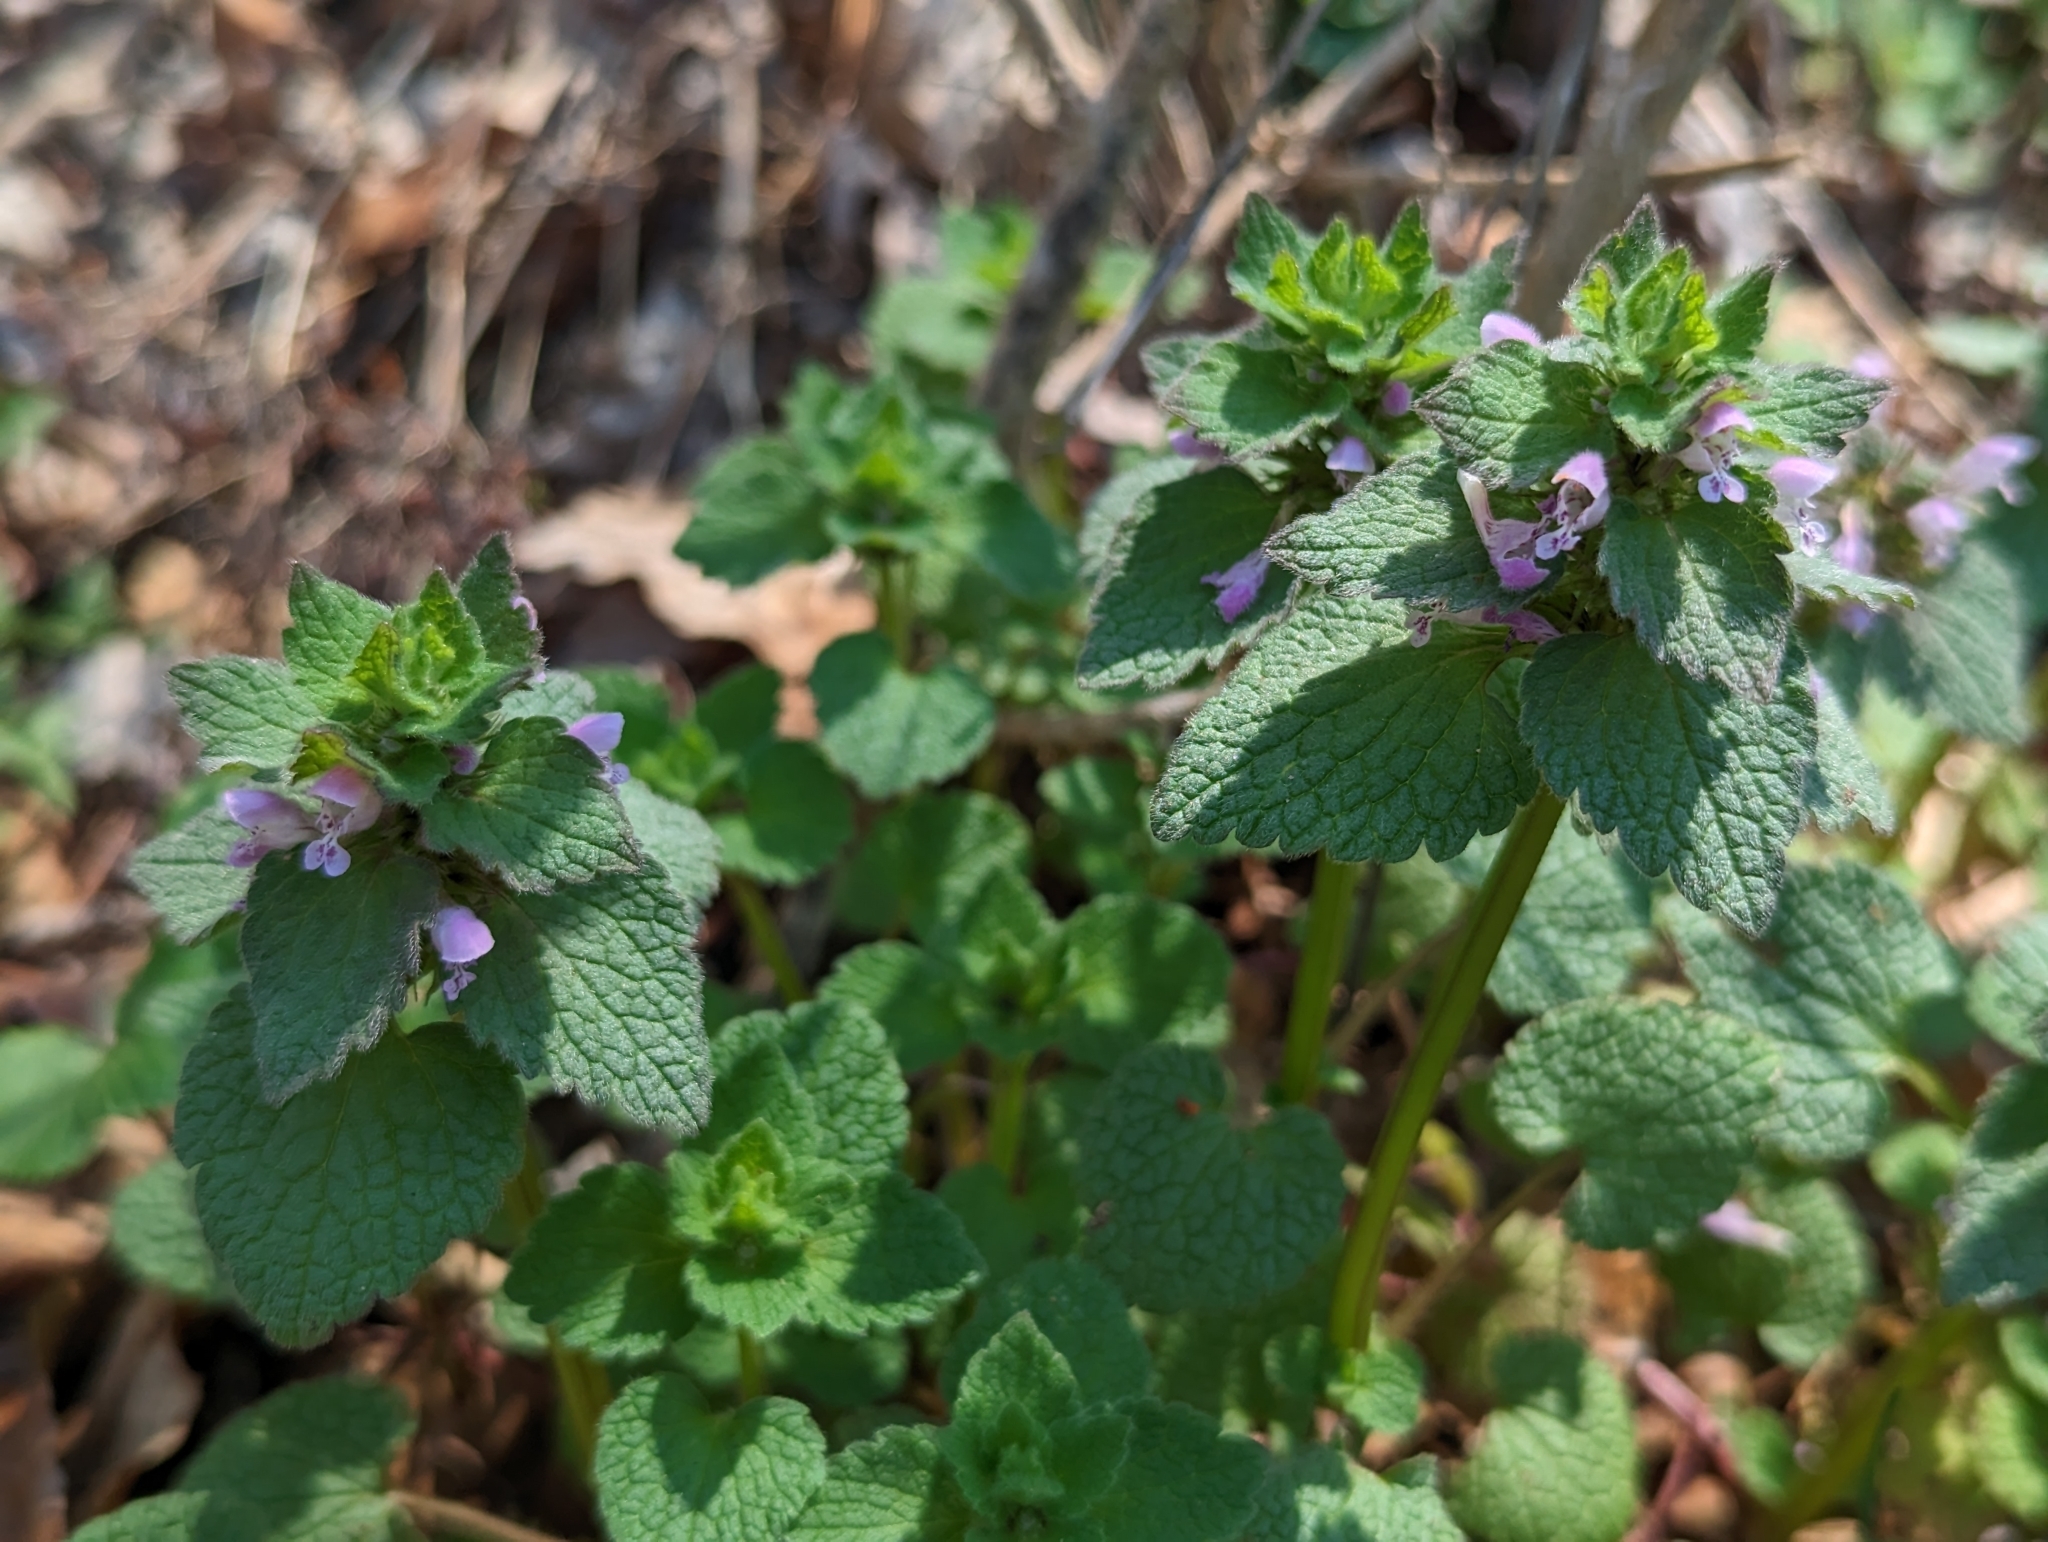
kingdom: Plantae
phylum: Tracheophyta
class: Magnoliopsida
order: Lamiales
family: Lamiaceae
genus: Lamium
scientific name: Lamium purpureum
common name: Red dead-nettle
